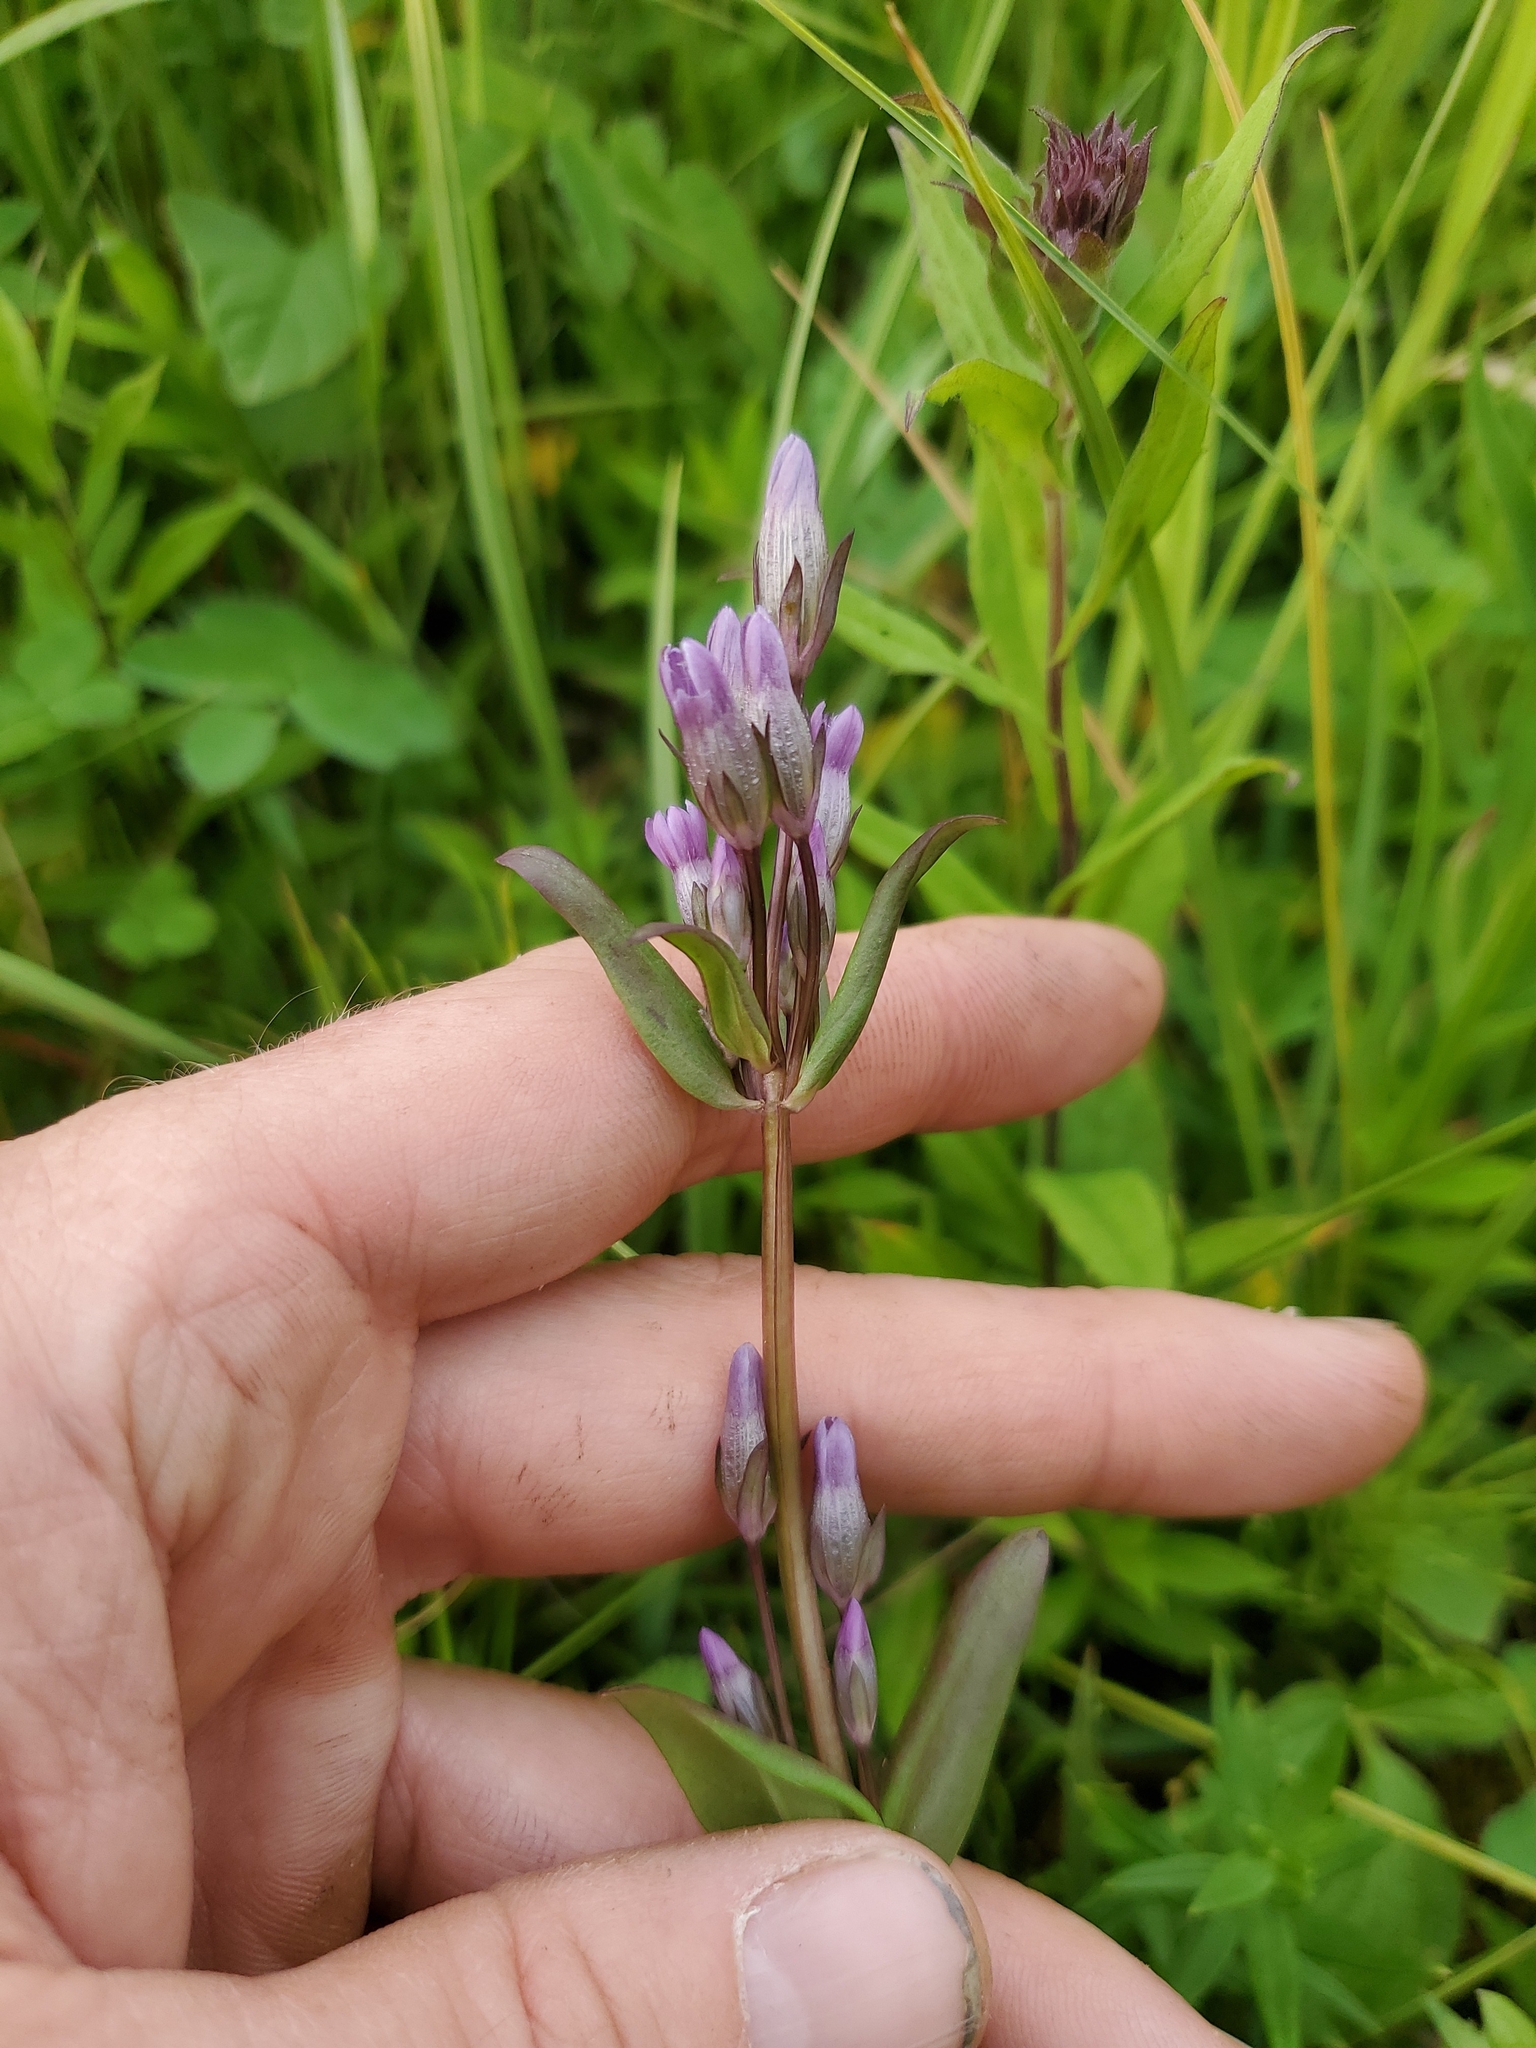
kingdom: Plantae
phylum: Tracheophyta
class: Magnoliopsida
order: Gentianales
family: Gentianaceae
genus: Gentianella
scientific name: Gentianella amarella
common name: Autumn gentian
